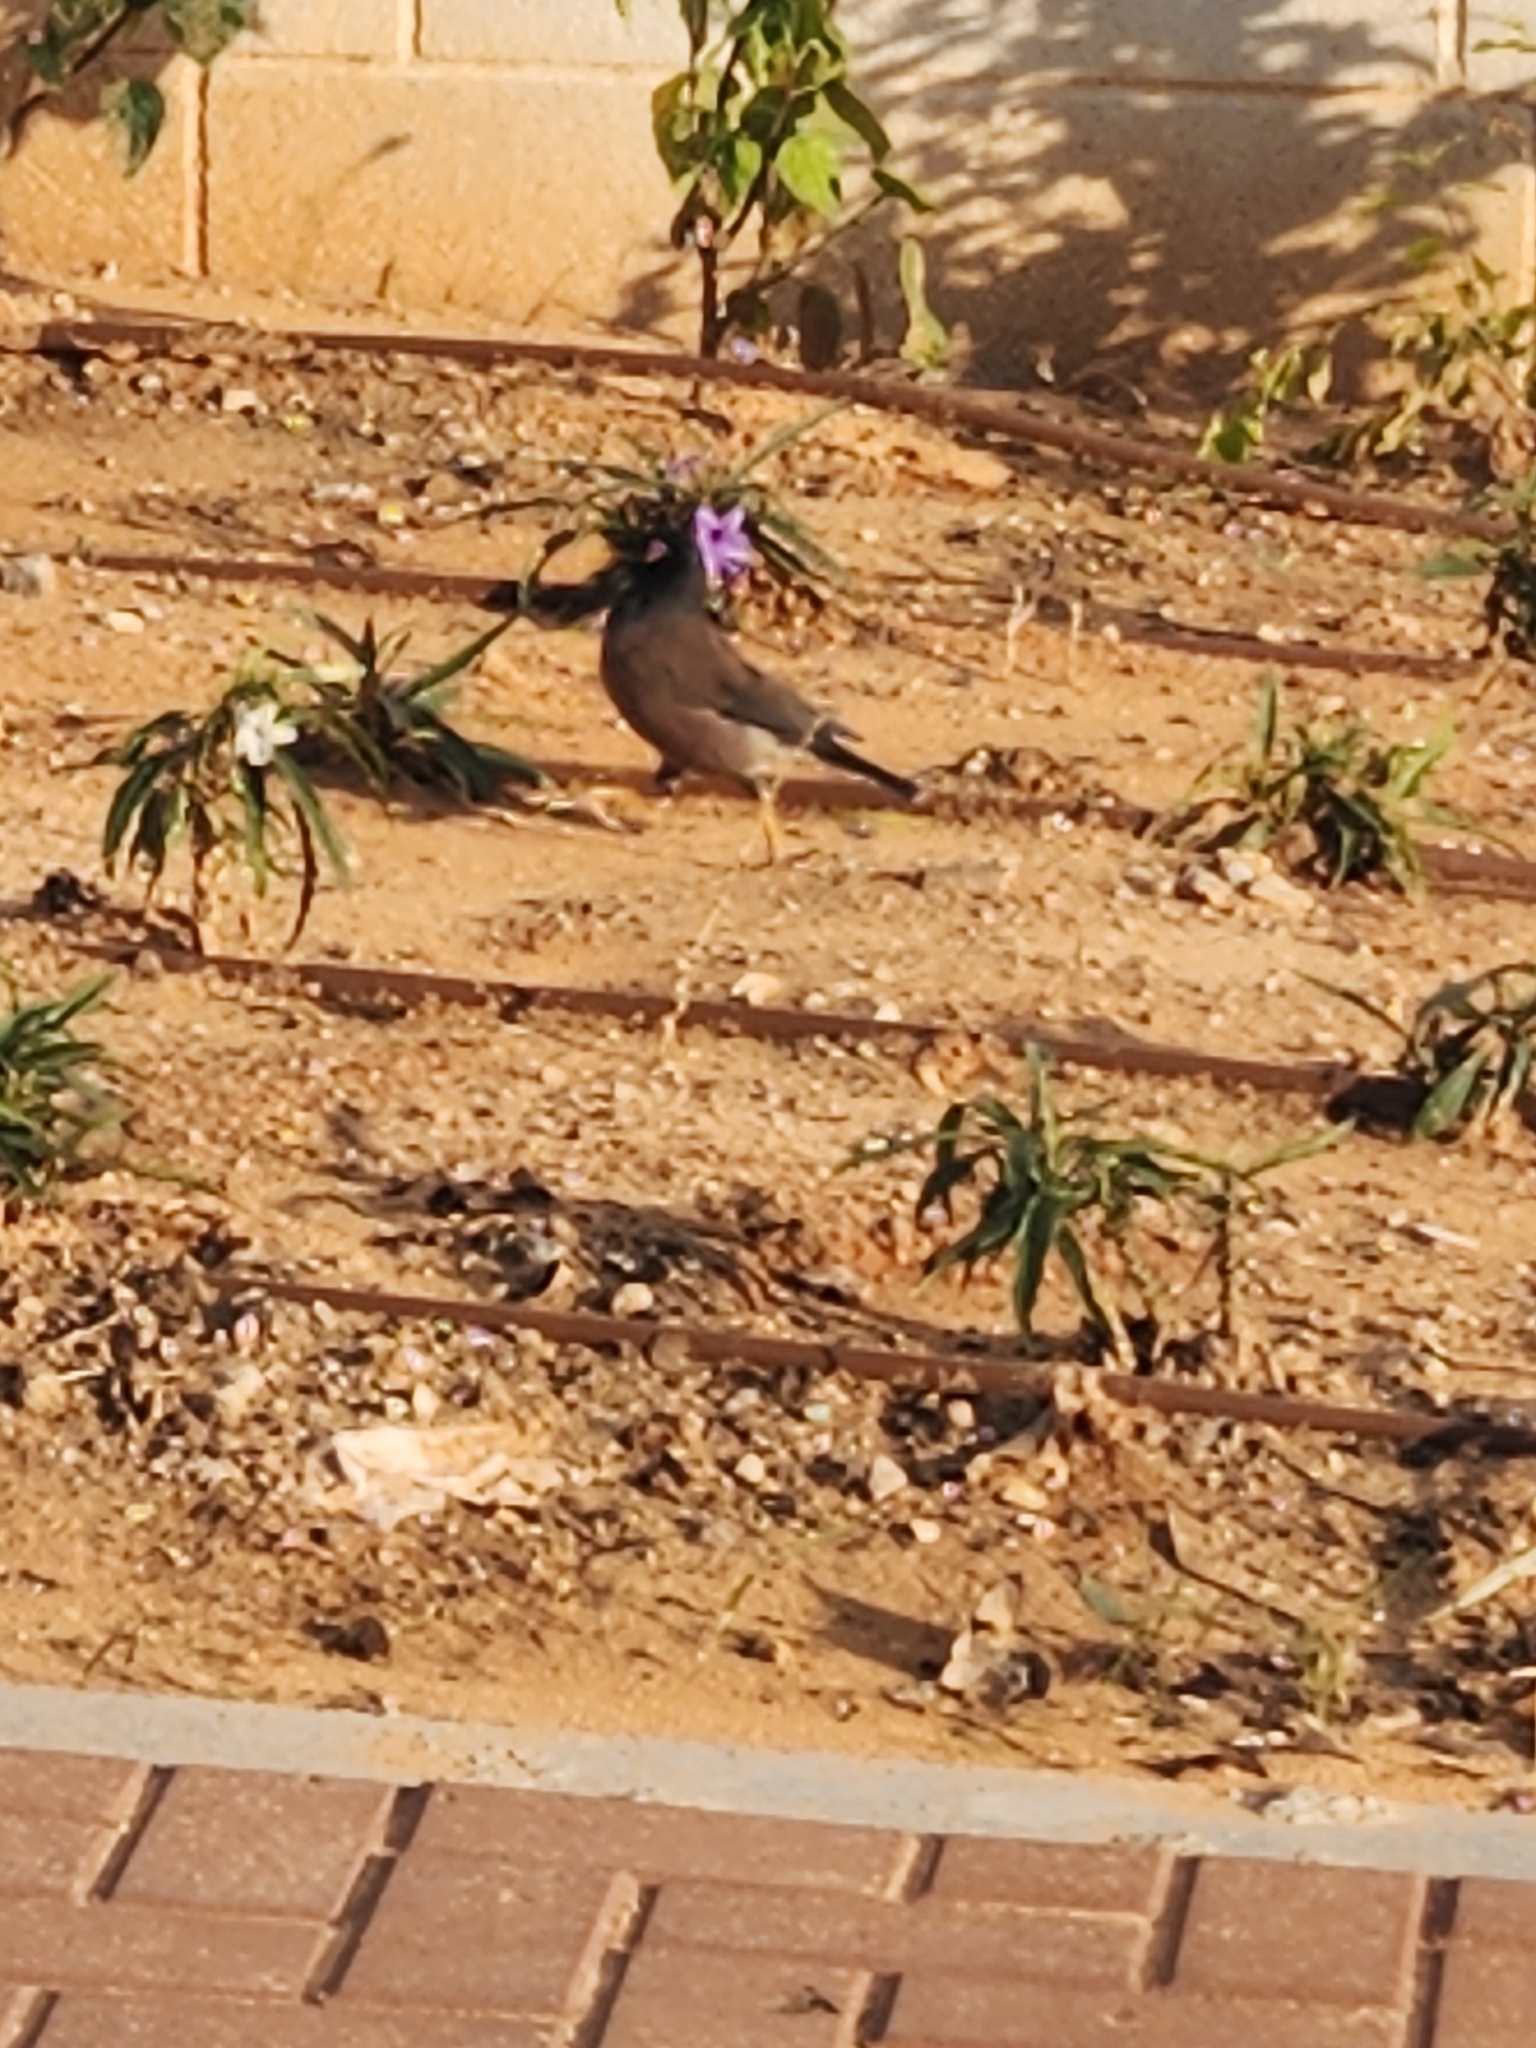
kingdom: Animalia
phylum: Chordata
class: Aves
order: Passeriformes
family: Sturnidae
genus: Acridotheres
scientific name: Acridotheres tristis
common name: Common myna
